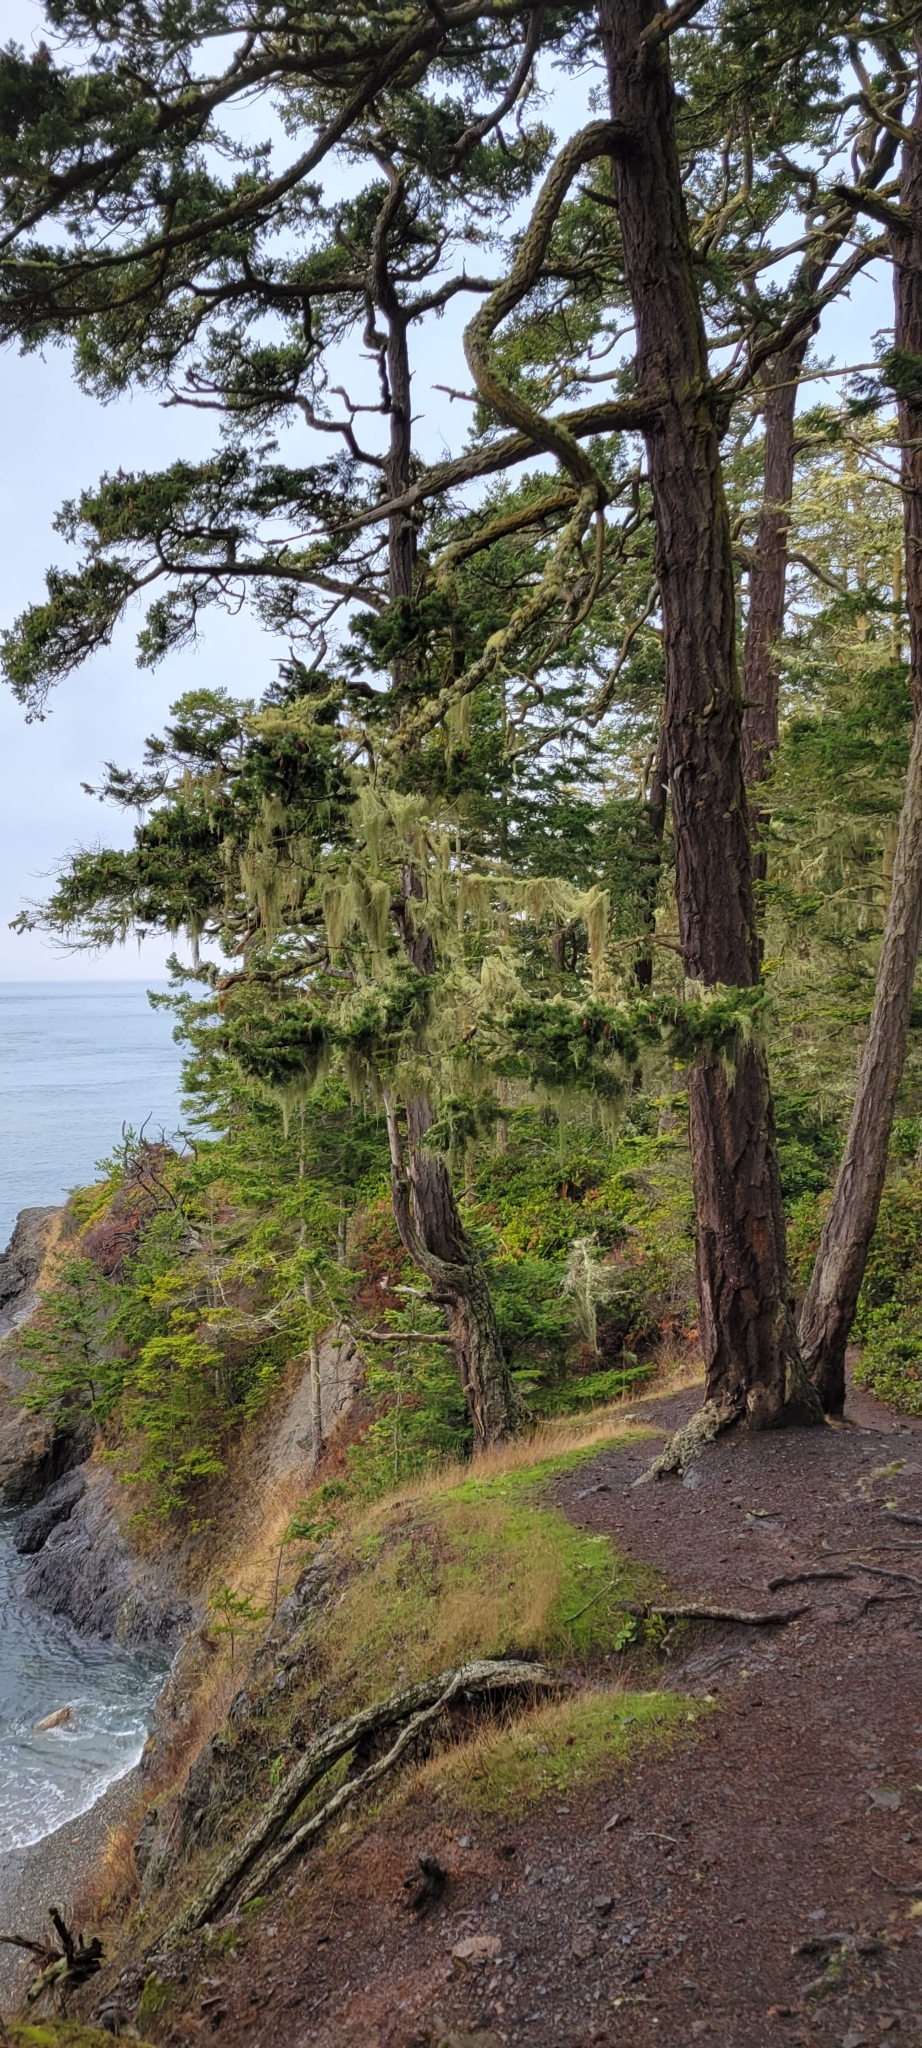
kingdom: Fungi
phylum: Ascomycota
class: Lecanoromycetes
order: Lecanorales
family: Ramalinaceae
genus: Ramalina
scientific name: Ramalina menziesii
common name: Lace lichen
